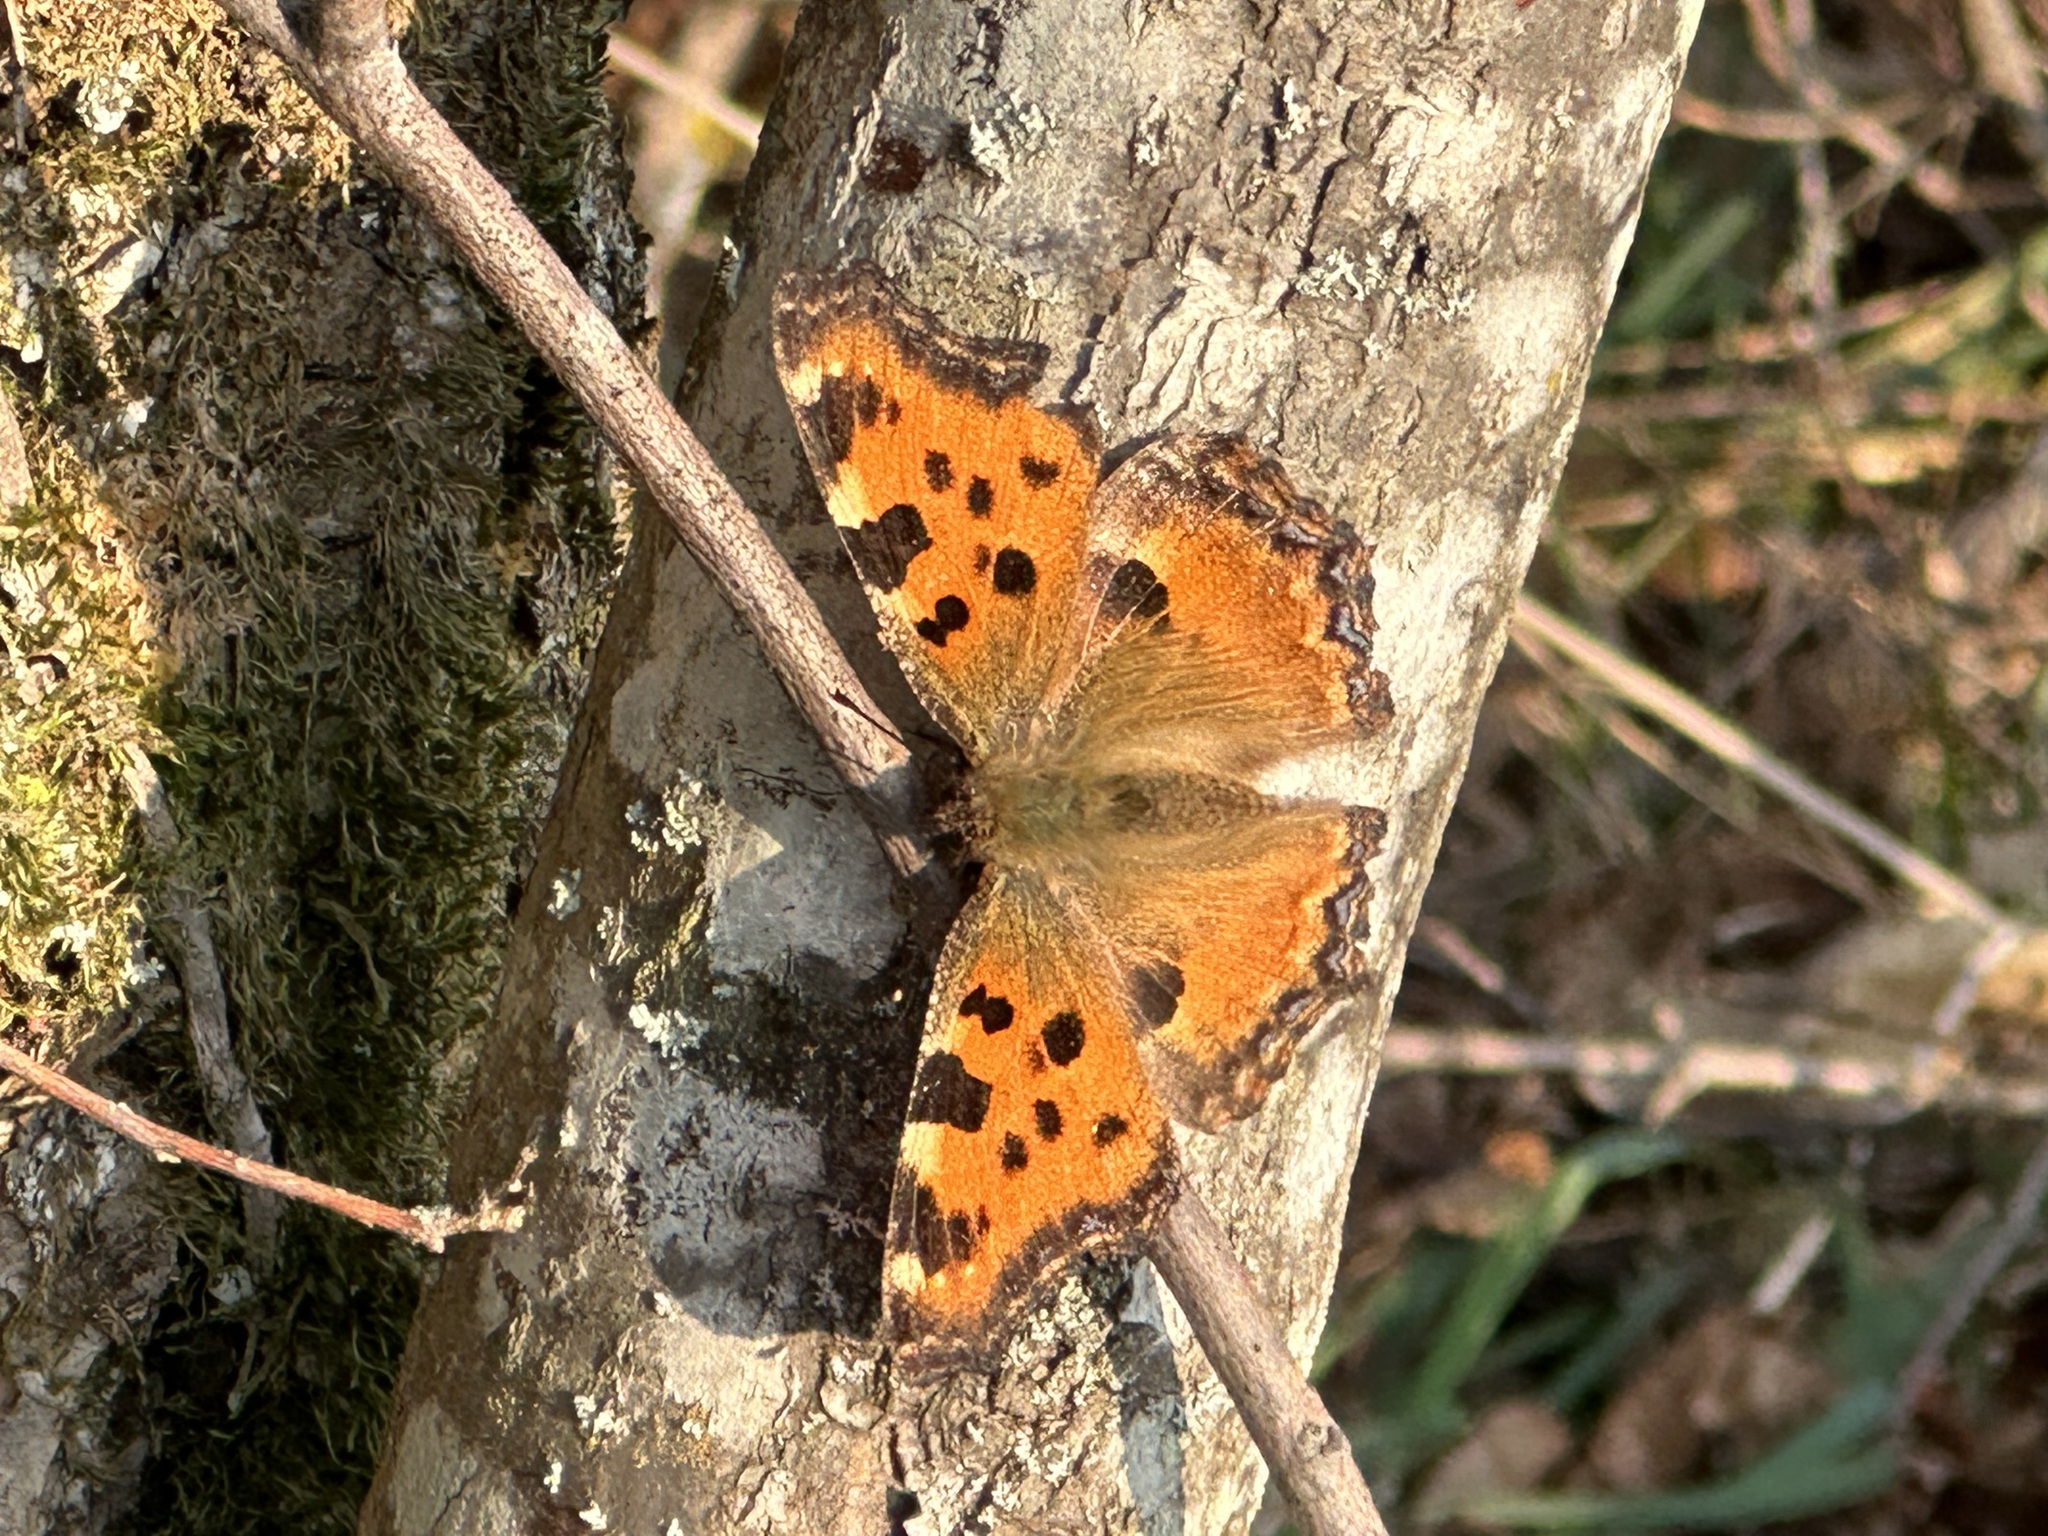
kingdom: Animalia
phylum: Arthropoda
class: Insecta
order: Lepidoptera
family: Nymphalidae
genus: Nymphalis
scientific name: Nymphalis polychloros
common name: Large tortoiseshell
